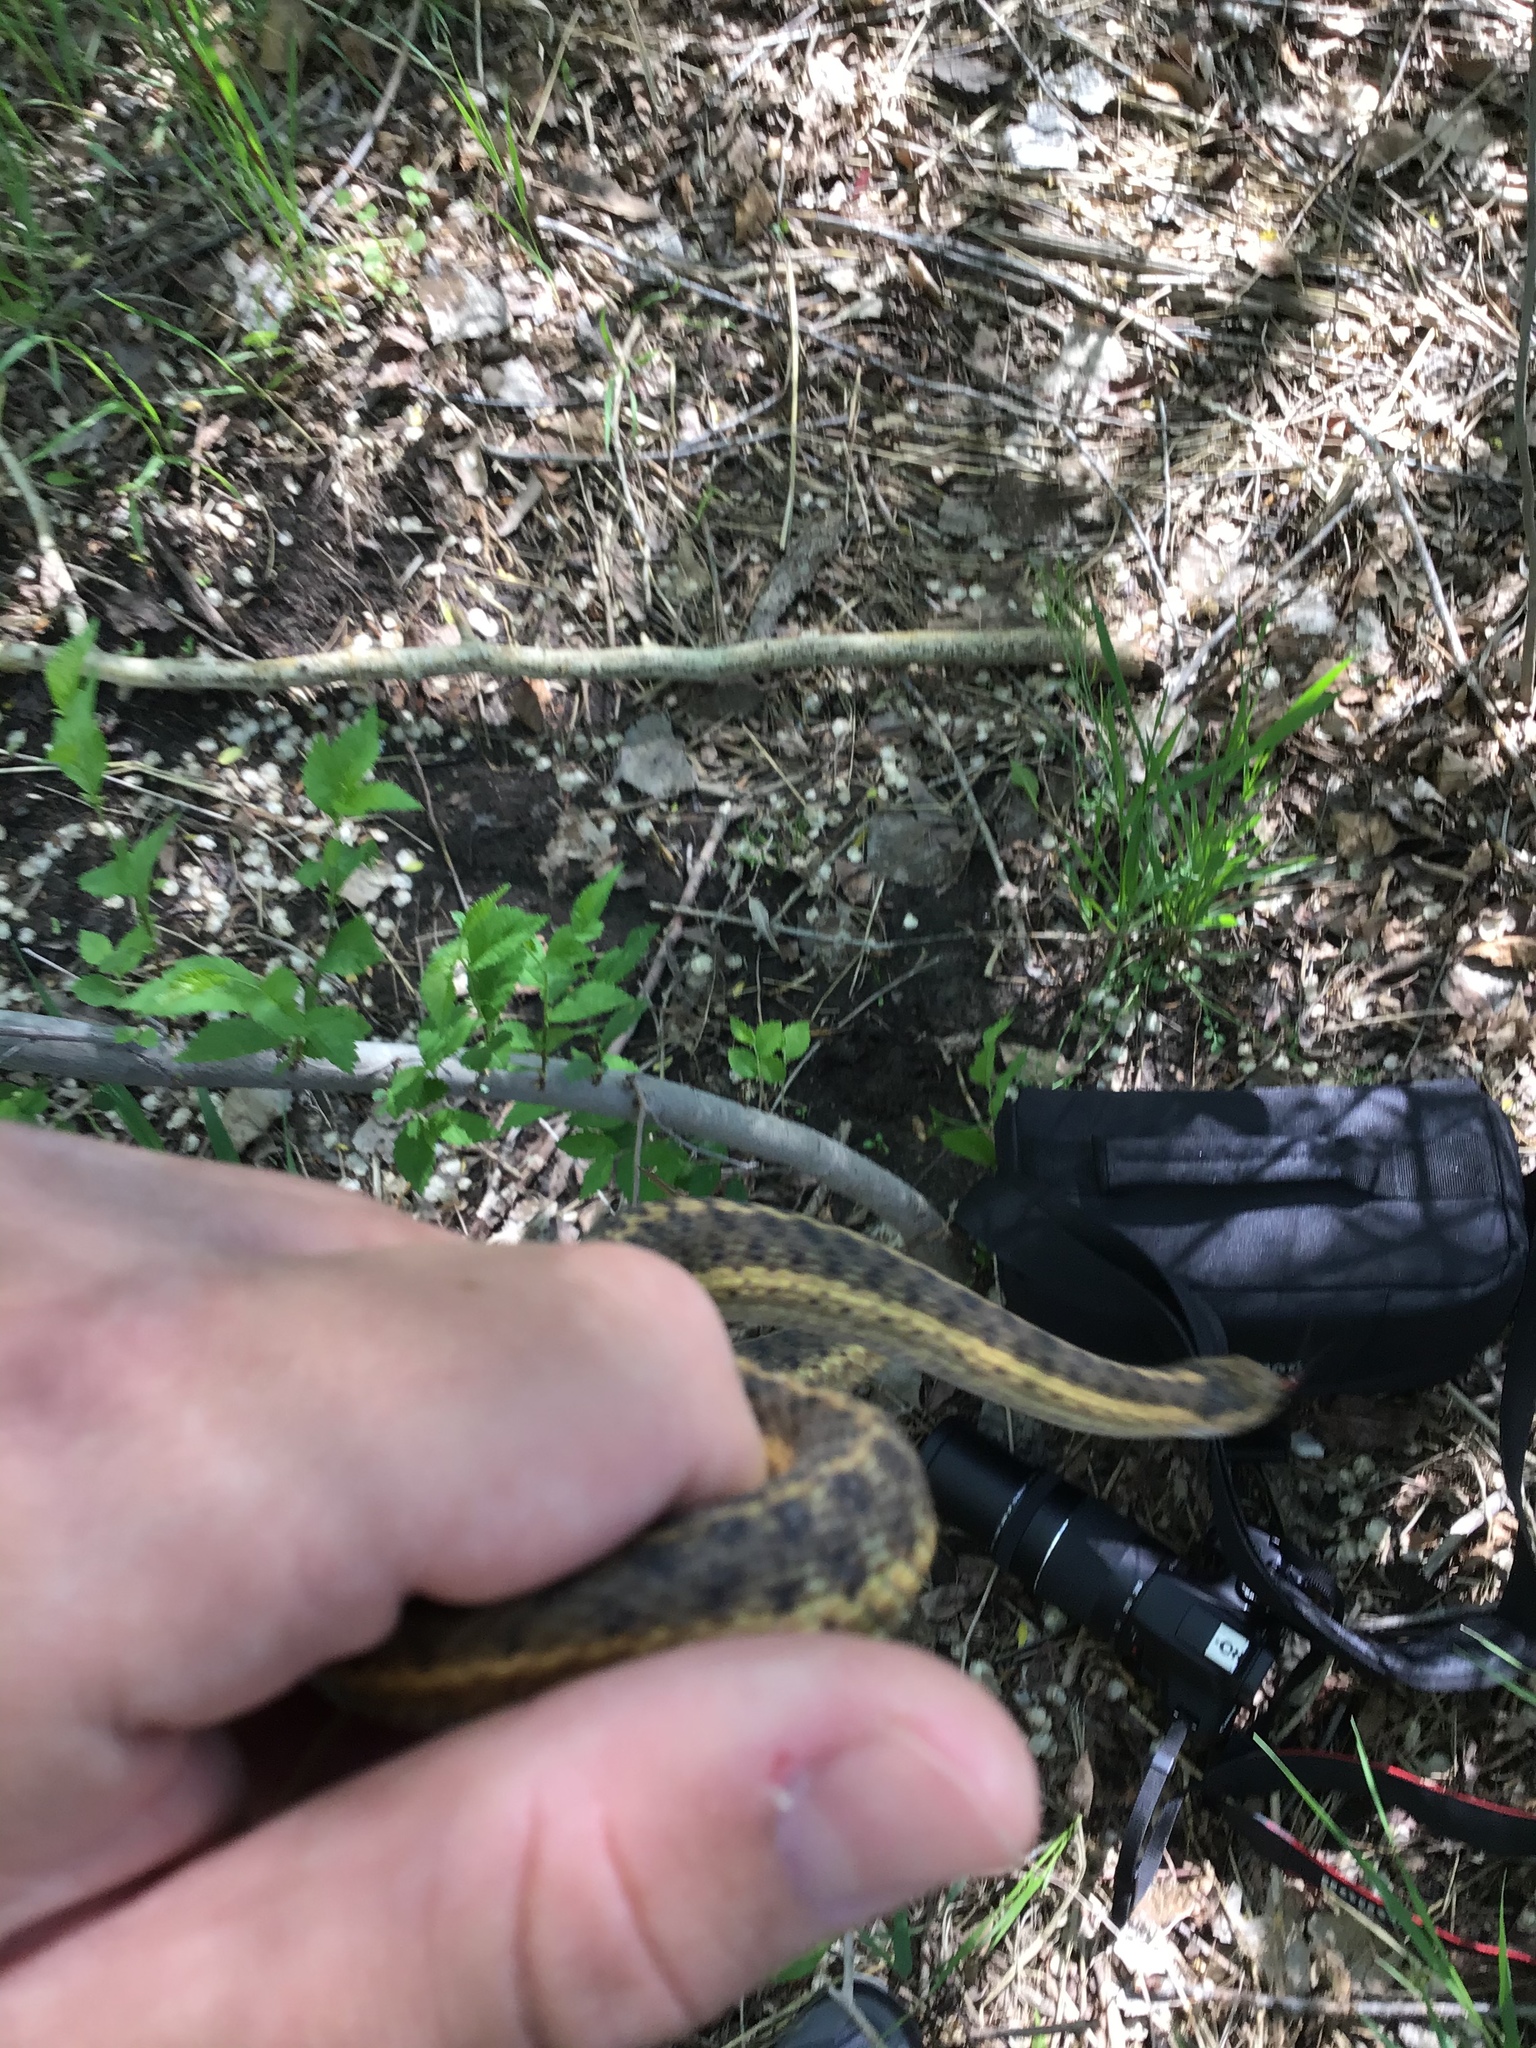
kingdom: Animalia
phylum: Chordata
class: Squamata
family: Colubridae
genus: Thamnophis
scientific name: Thamnophis elegans
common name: Western terrestrial garter snake
